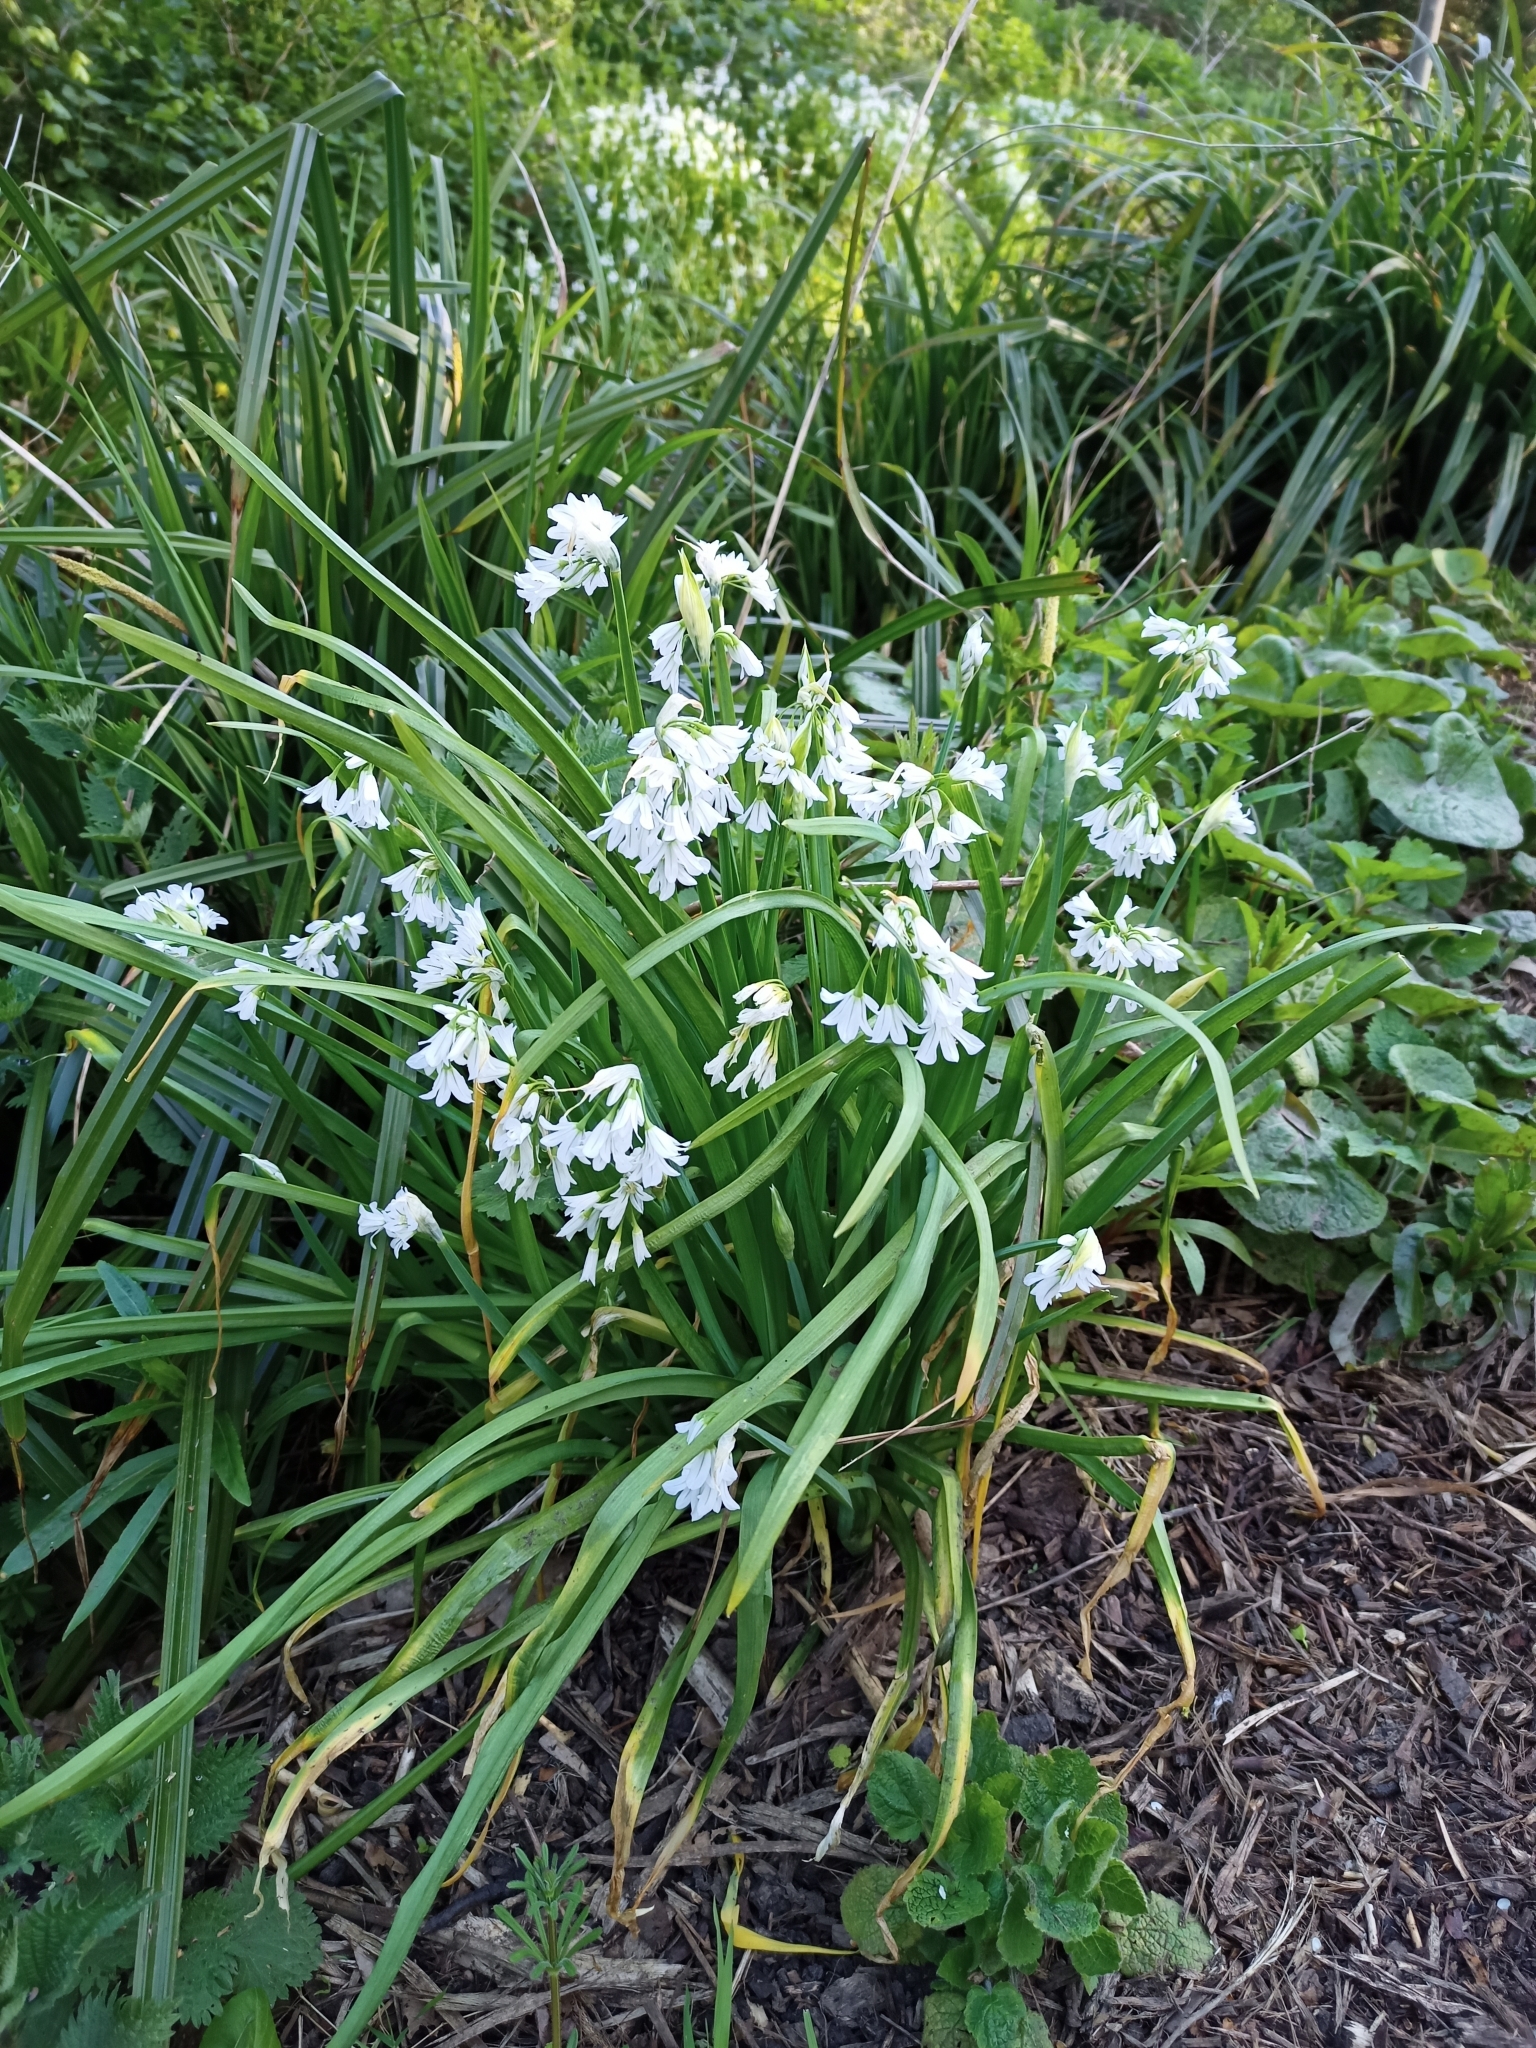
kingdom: Plantae
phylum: Tracheophyta
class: Liliopsida
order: Asparagales
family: Amaryllidaceae
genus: Allium
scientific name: Allium triquetrum
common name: Three-cornered garlic
